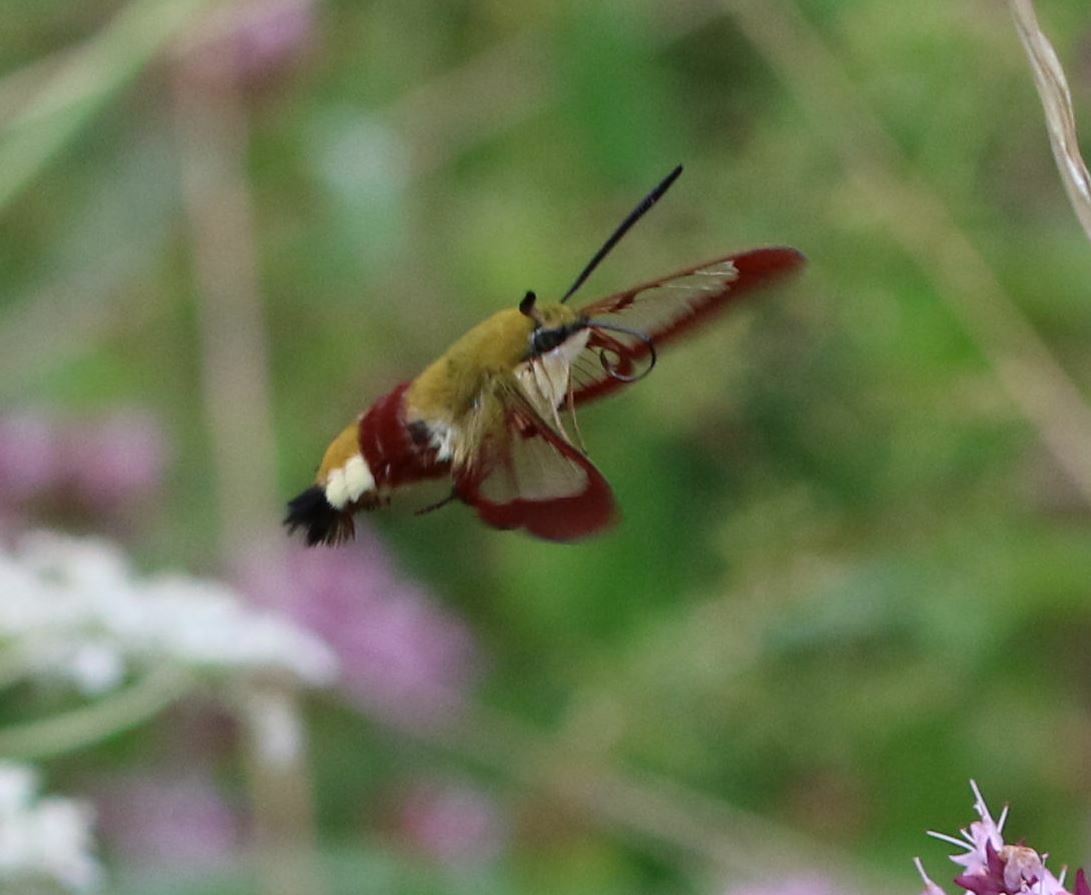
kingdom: Animalia
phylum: Arthropoda
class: Insecta
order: Lepidoptera
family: Sphingidae
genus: Hemaris
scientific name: Hemaris fuciformis
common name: Broad-bordered bee hawk-moth
